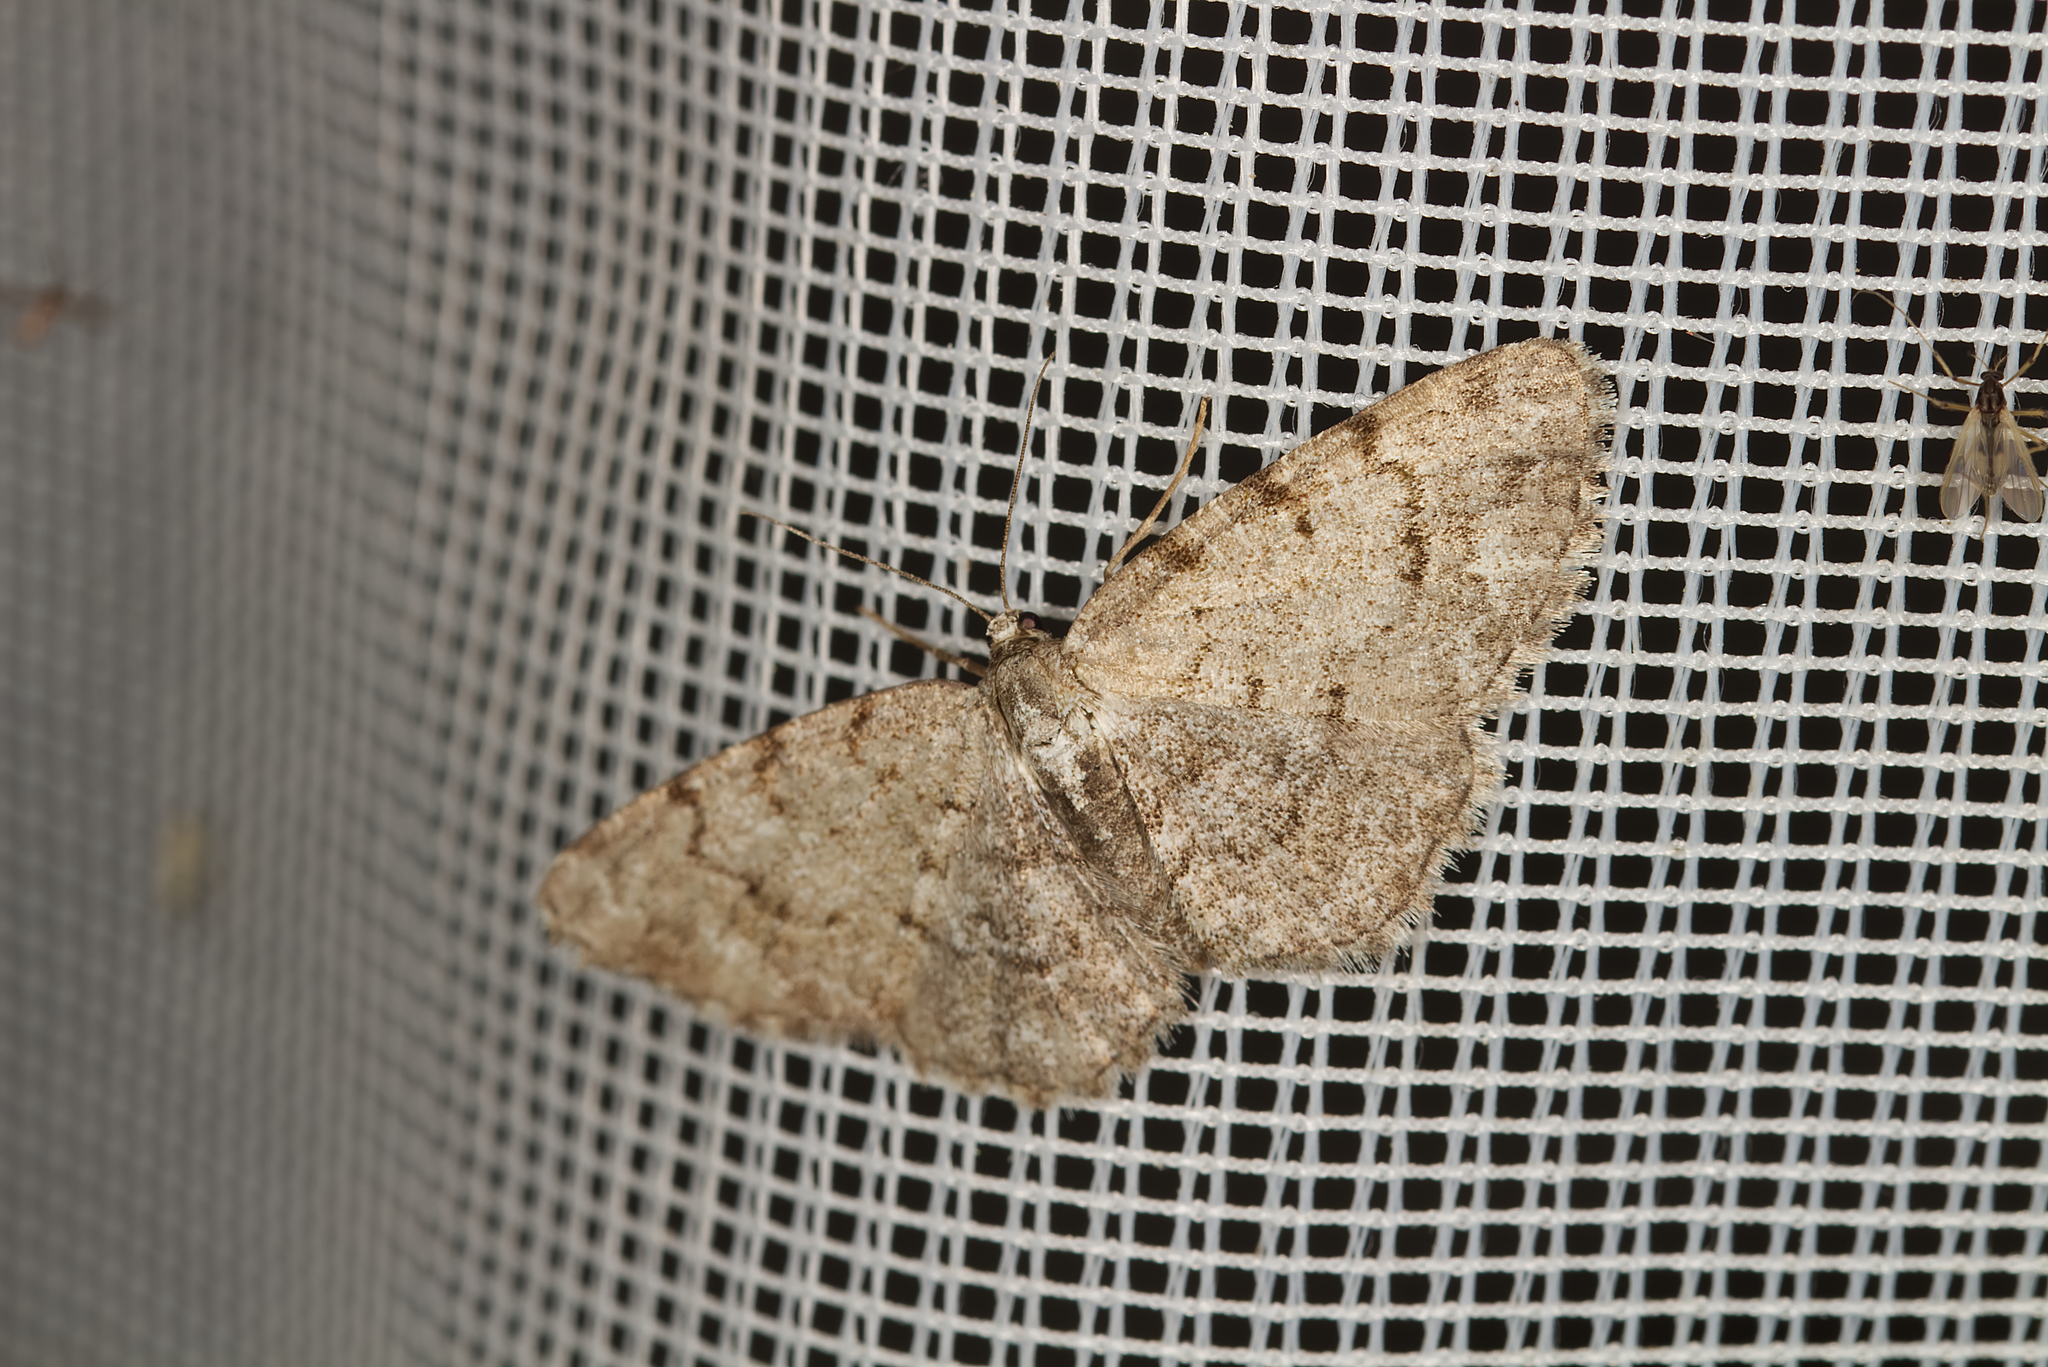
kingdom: Animalia
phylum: Arthropoda
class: Insecta
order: Lepidoptera
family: Geometridae
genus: Aethalura
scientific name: Aethalura punctulata
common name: Grey birch
